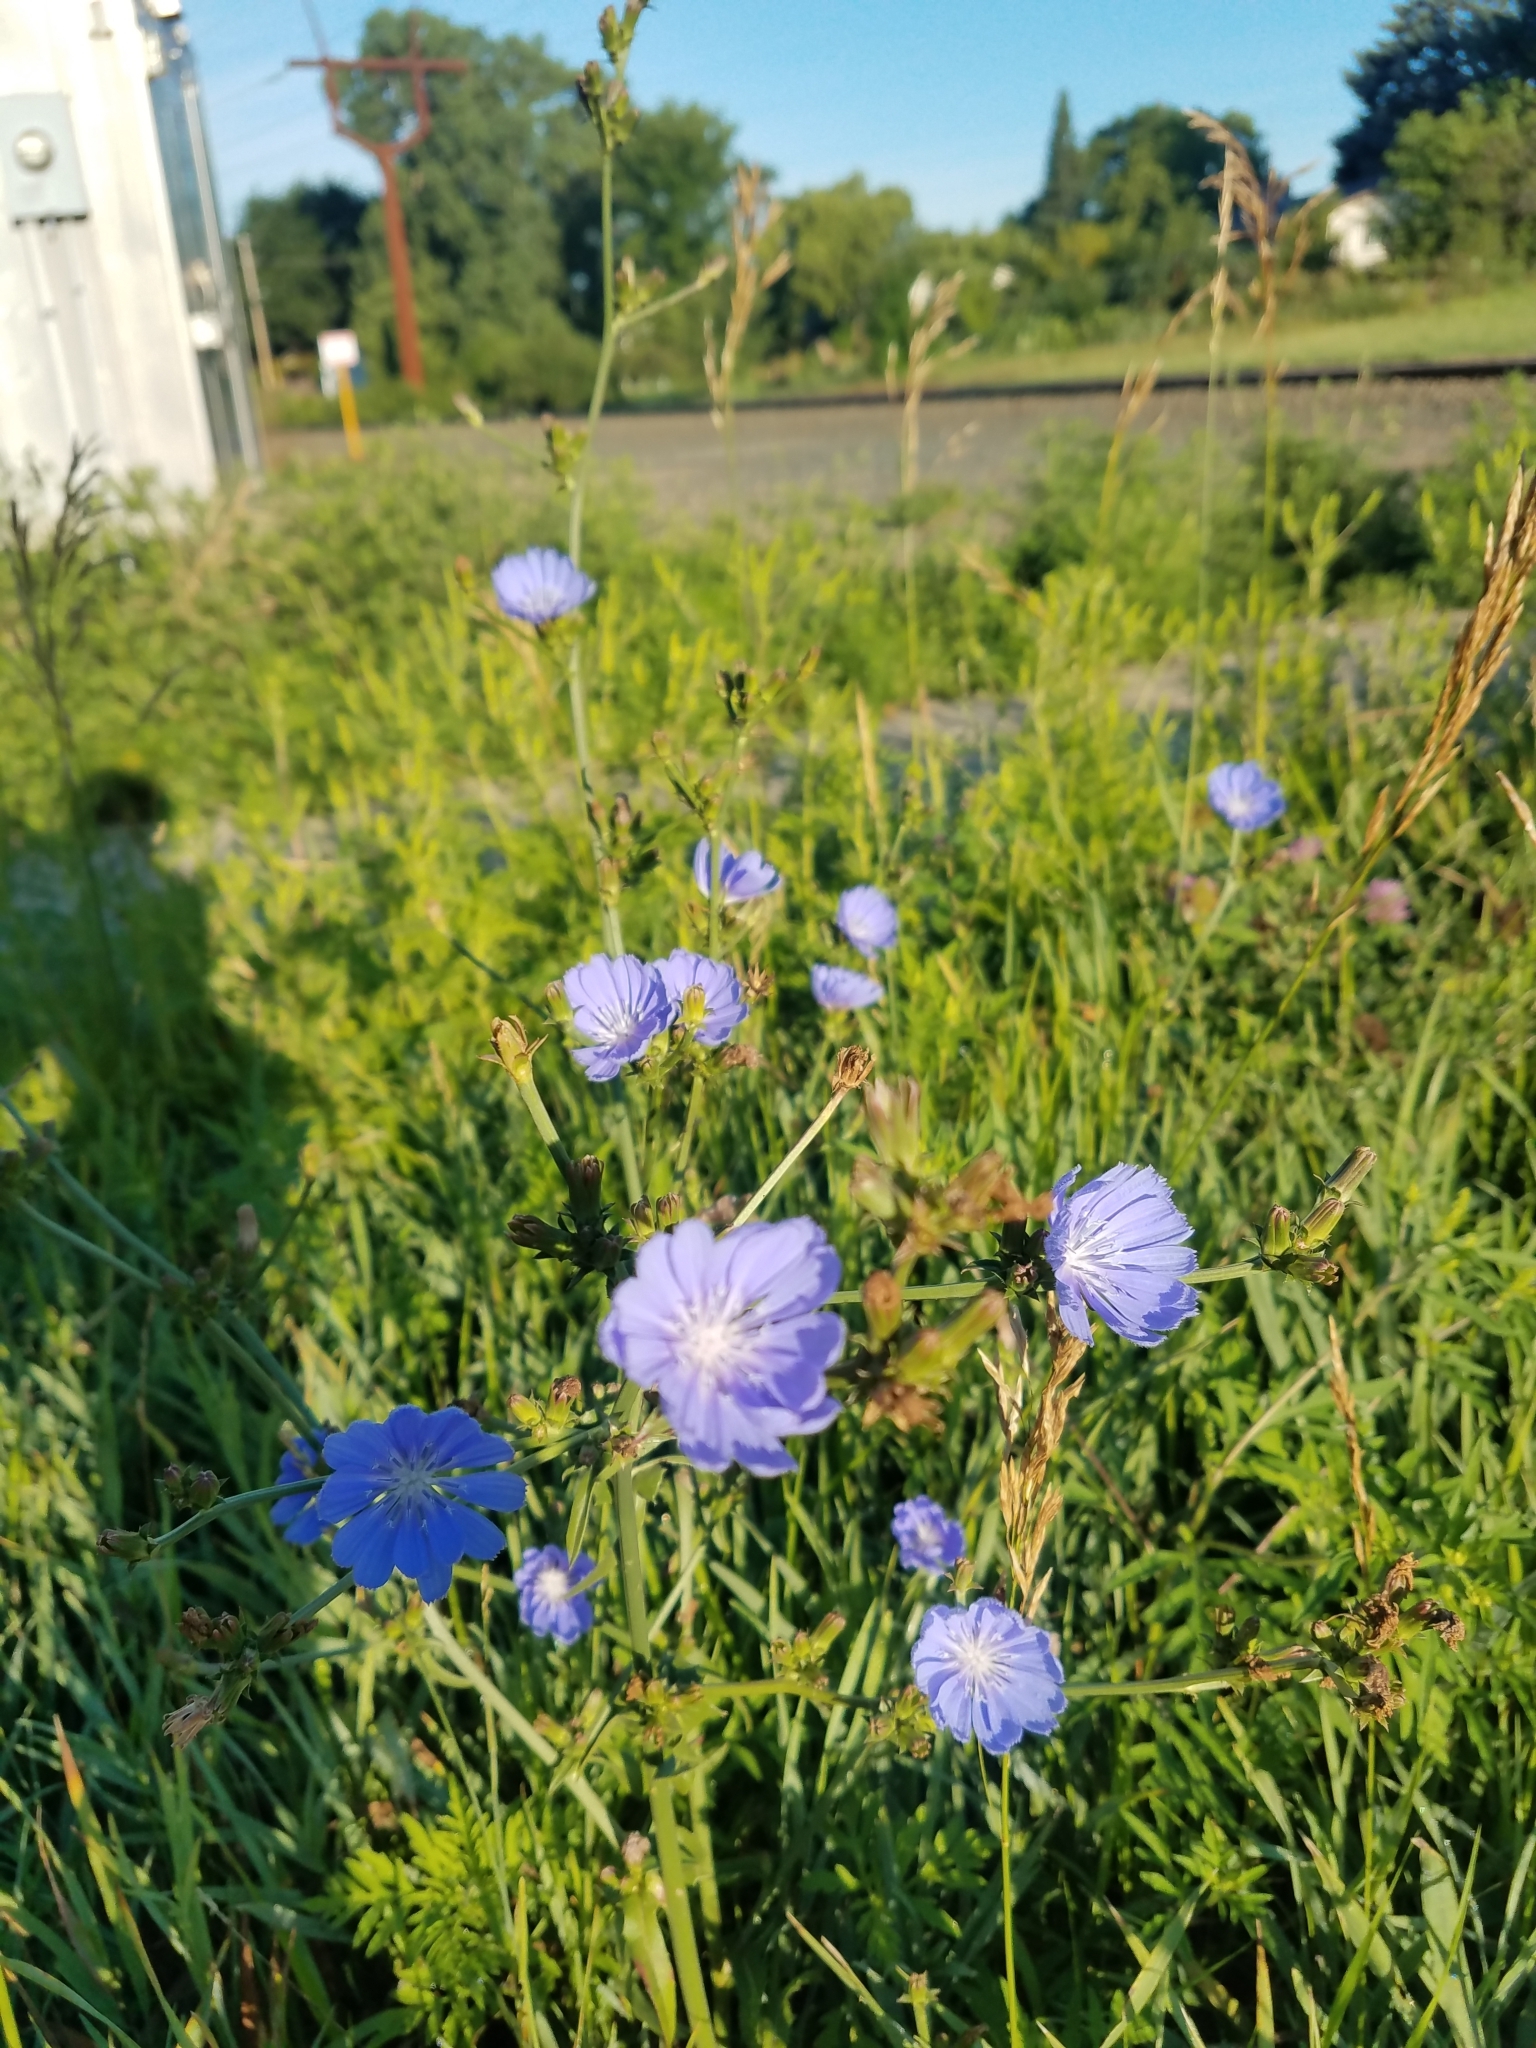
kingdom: Plantae
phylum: Tracheophyta
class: Magnoliopsida
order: Asterales
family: Asteraceae
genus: Cichorium
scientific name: Cichorium intybus
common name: Chicory
